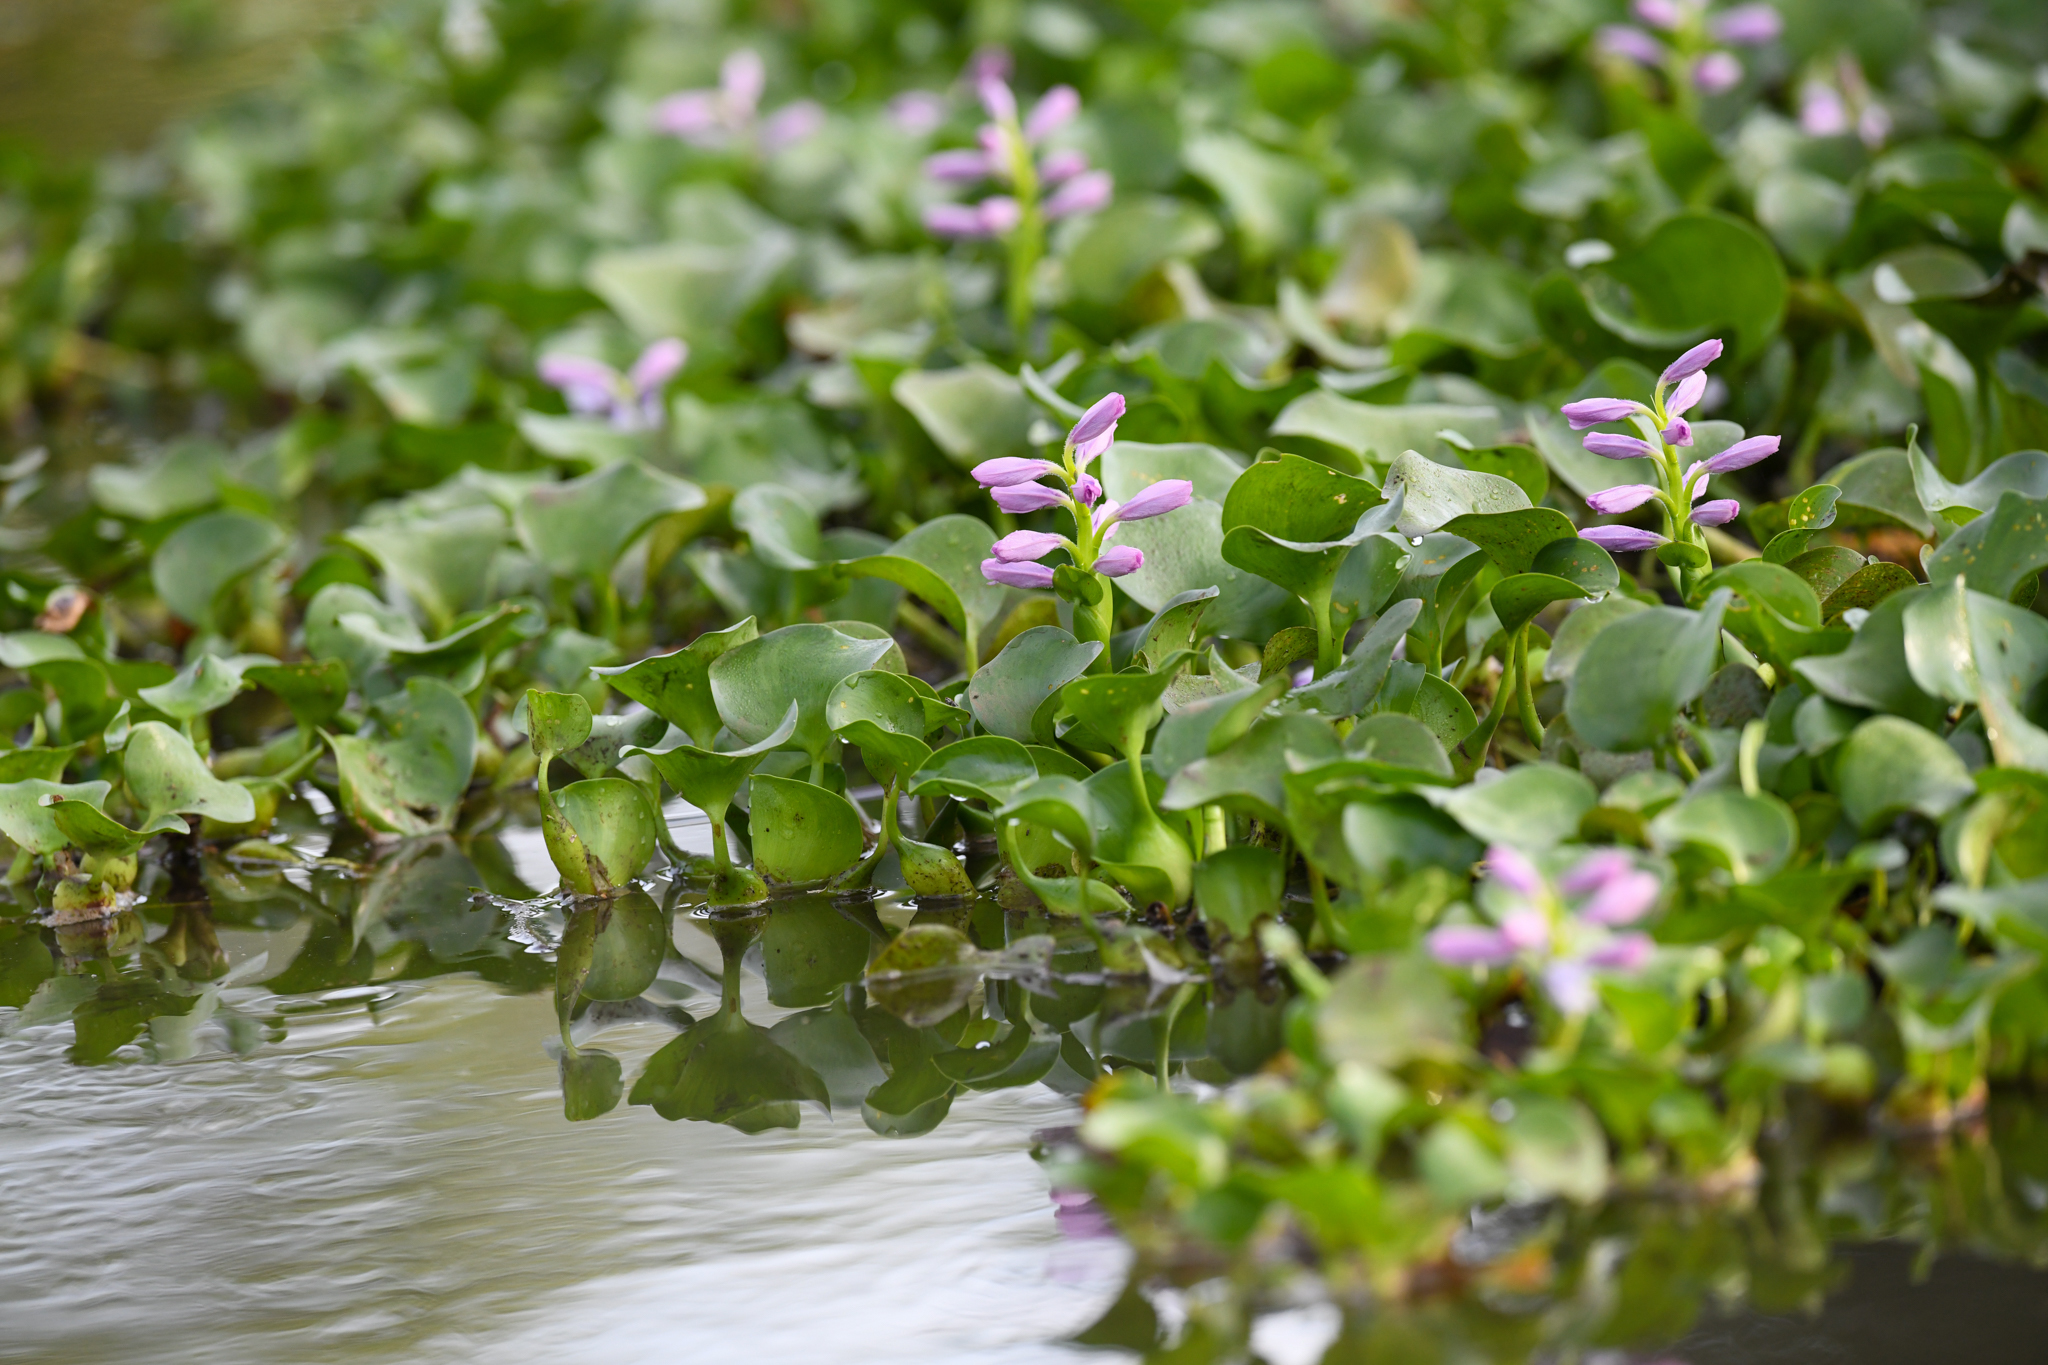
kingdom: Plantae
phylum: Tracheophyta
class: Liliopsida
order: Commelinales
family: Pontederiaceae
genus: Pontederia
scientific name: Pontederia crassipes
